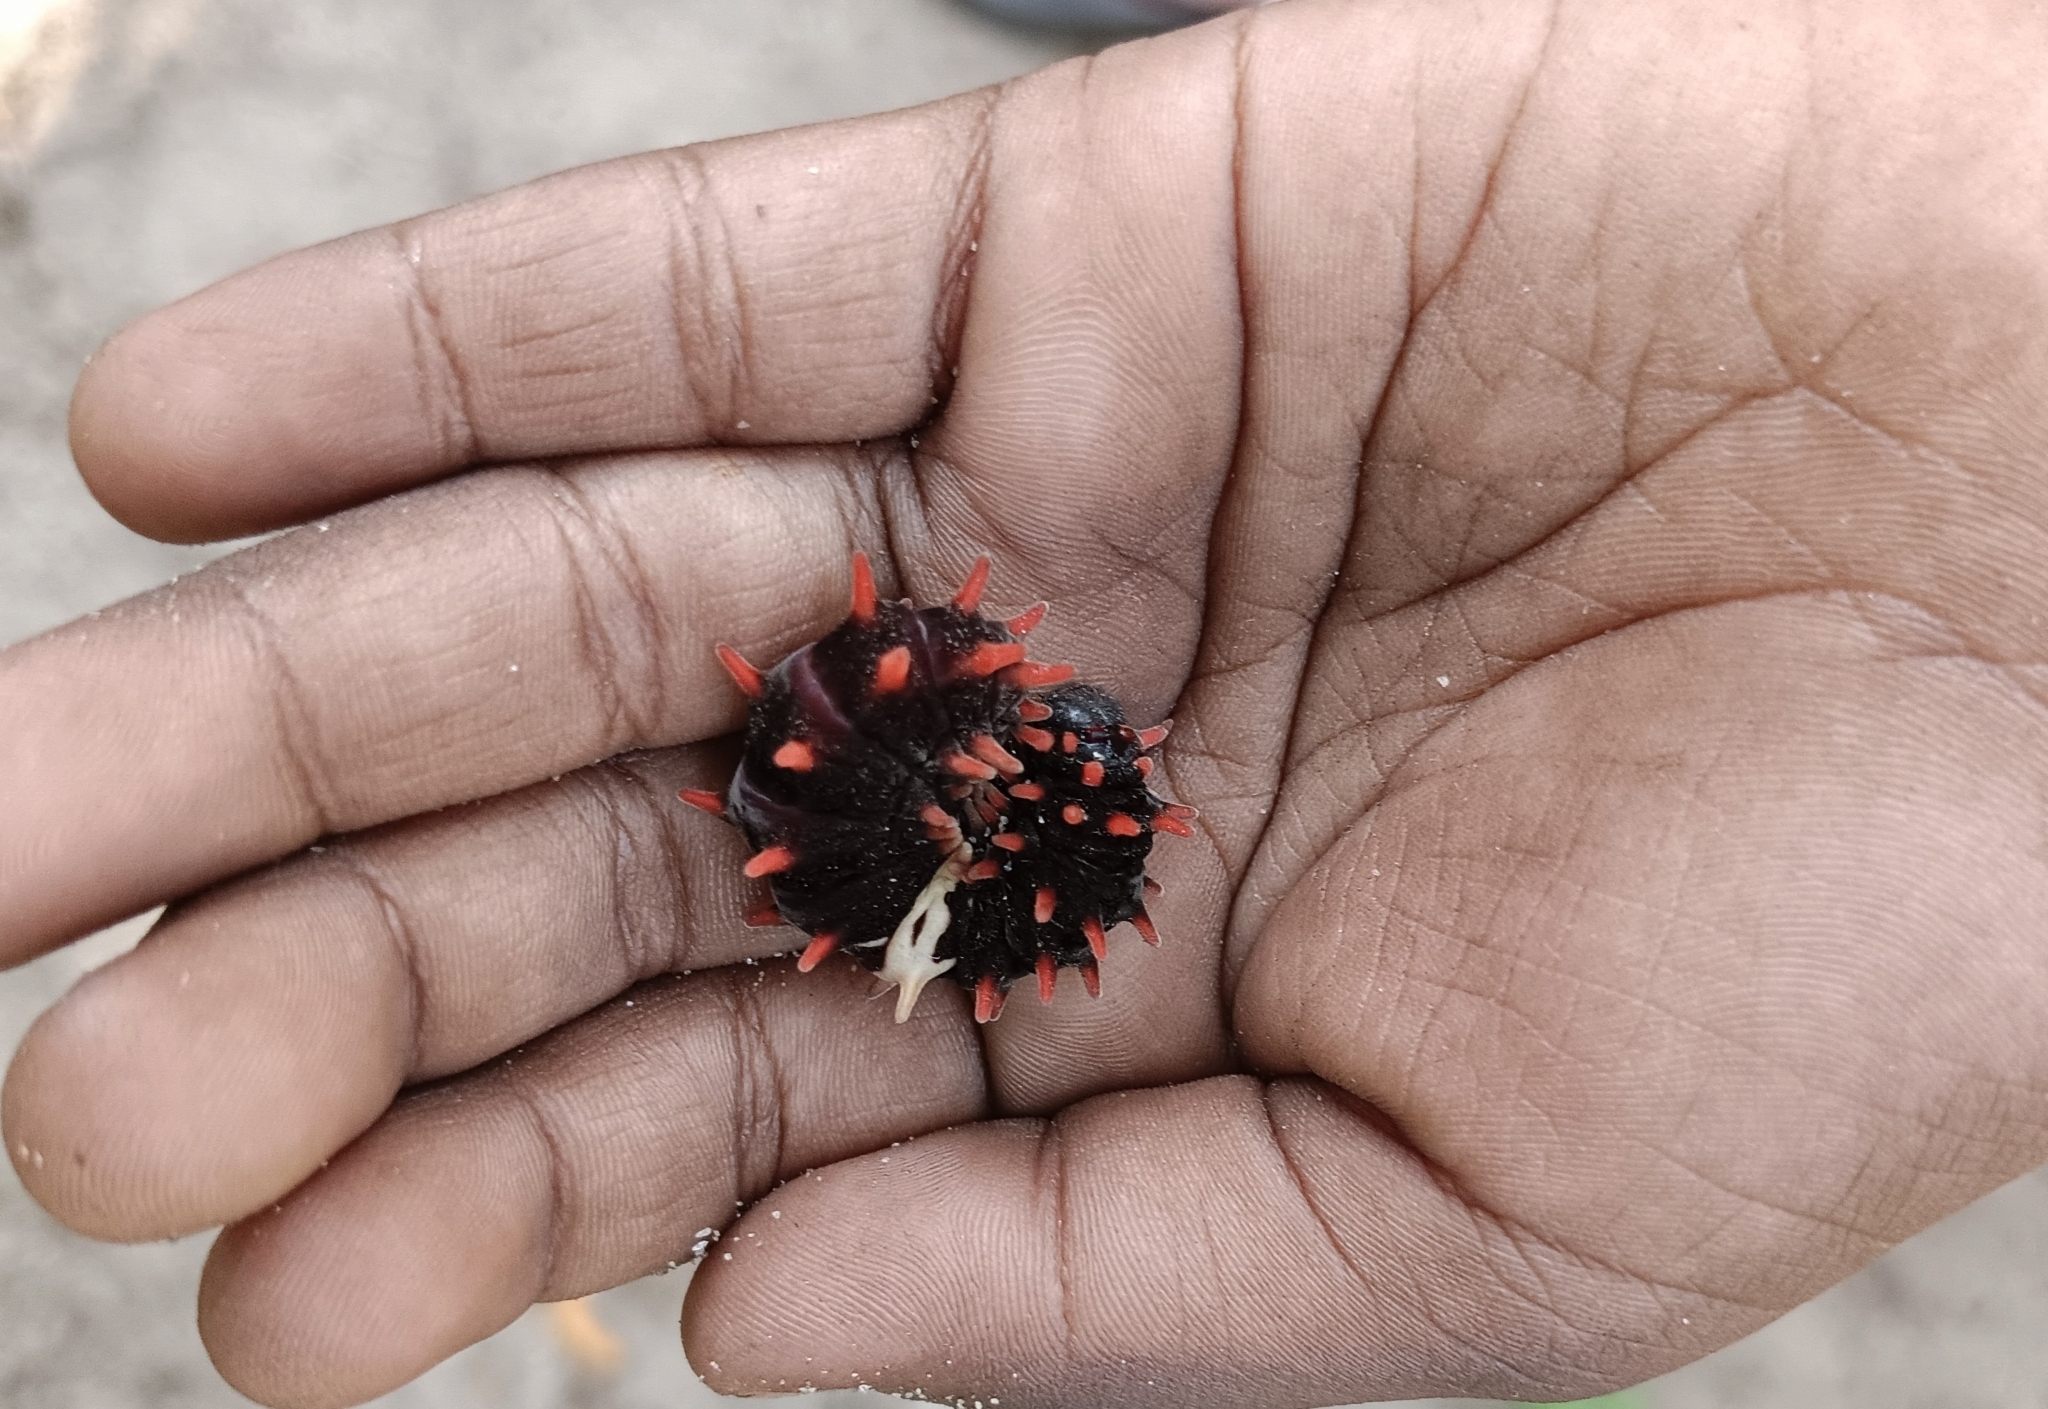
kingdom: Animalia
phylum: Arthropoda
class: Insecta
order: Lepidoptera
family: Papilionidae
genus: Pachliopta
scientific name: Pachliopta aristolochiae
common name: Common rose
